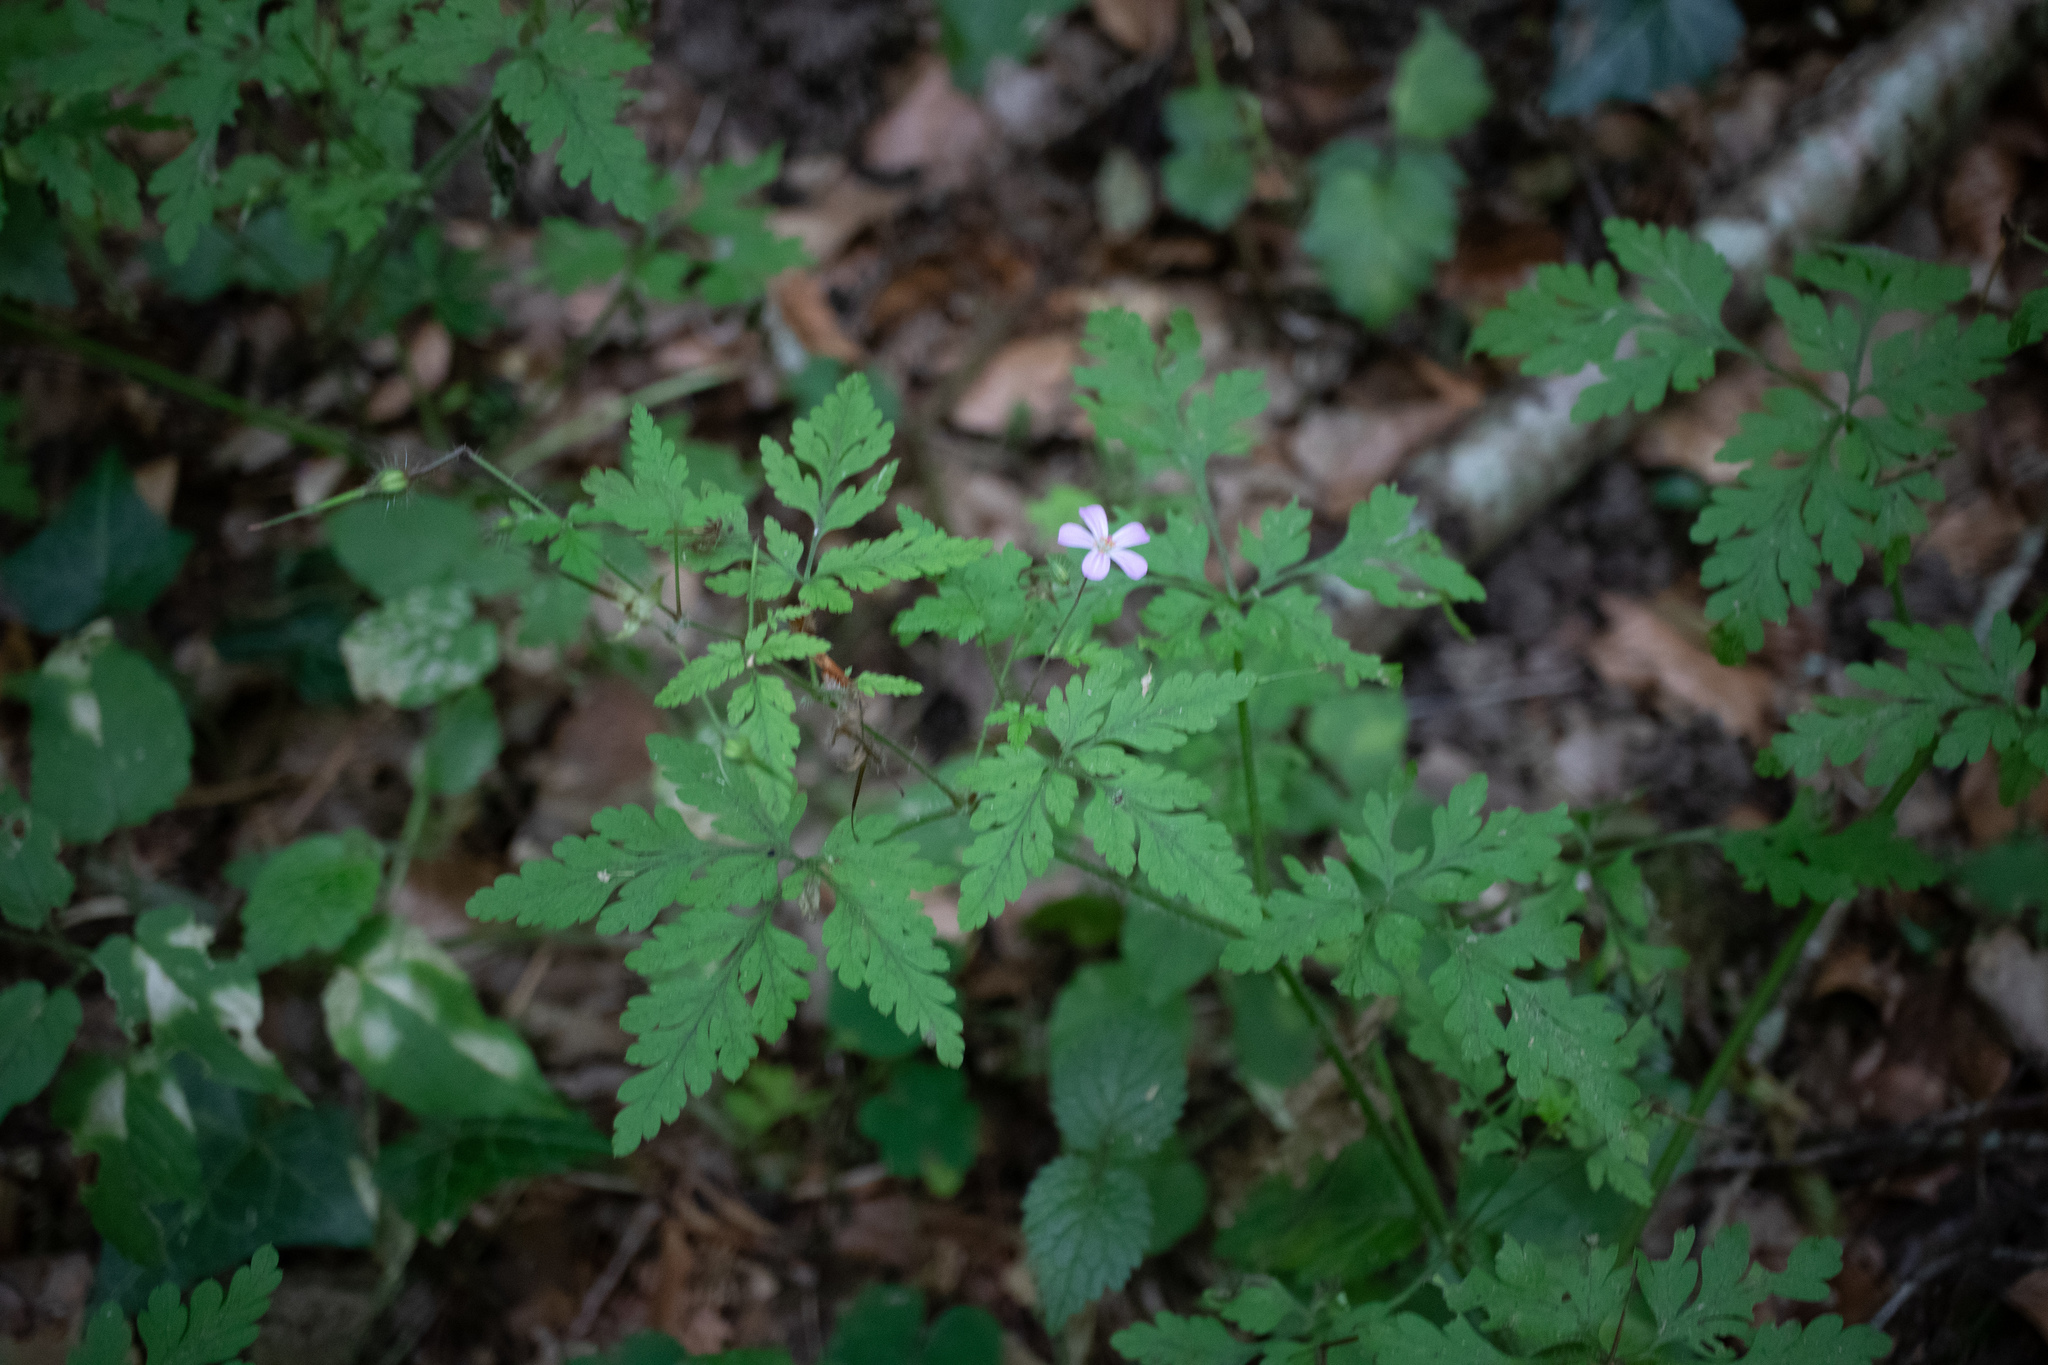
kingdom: Plantae
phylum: Tracheophyta
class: Magnoliopsida
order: Geraniales
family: Geraniaceae
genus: Geranium
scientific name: Geranium robertianum
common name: Herb-robert
